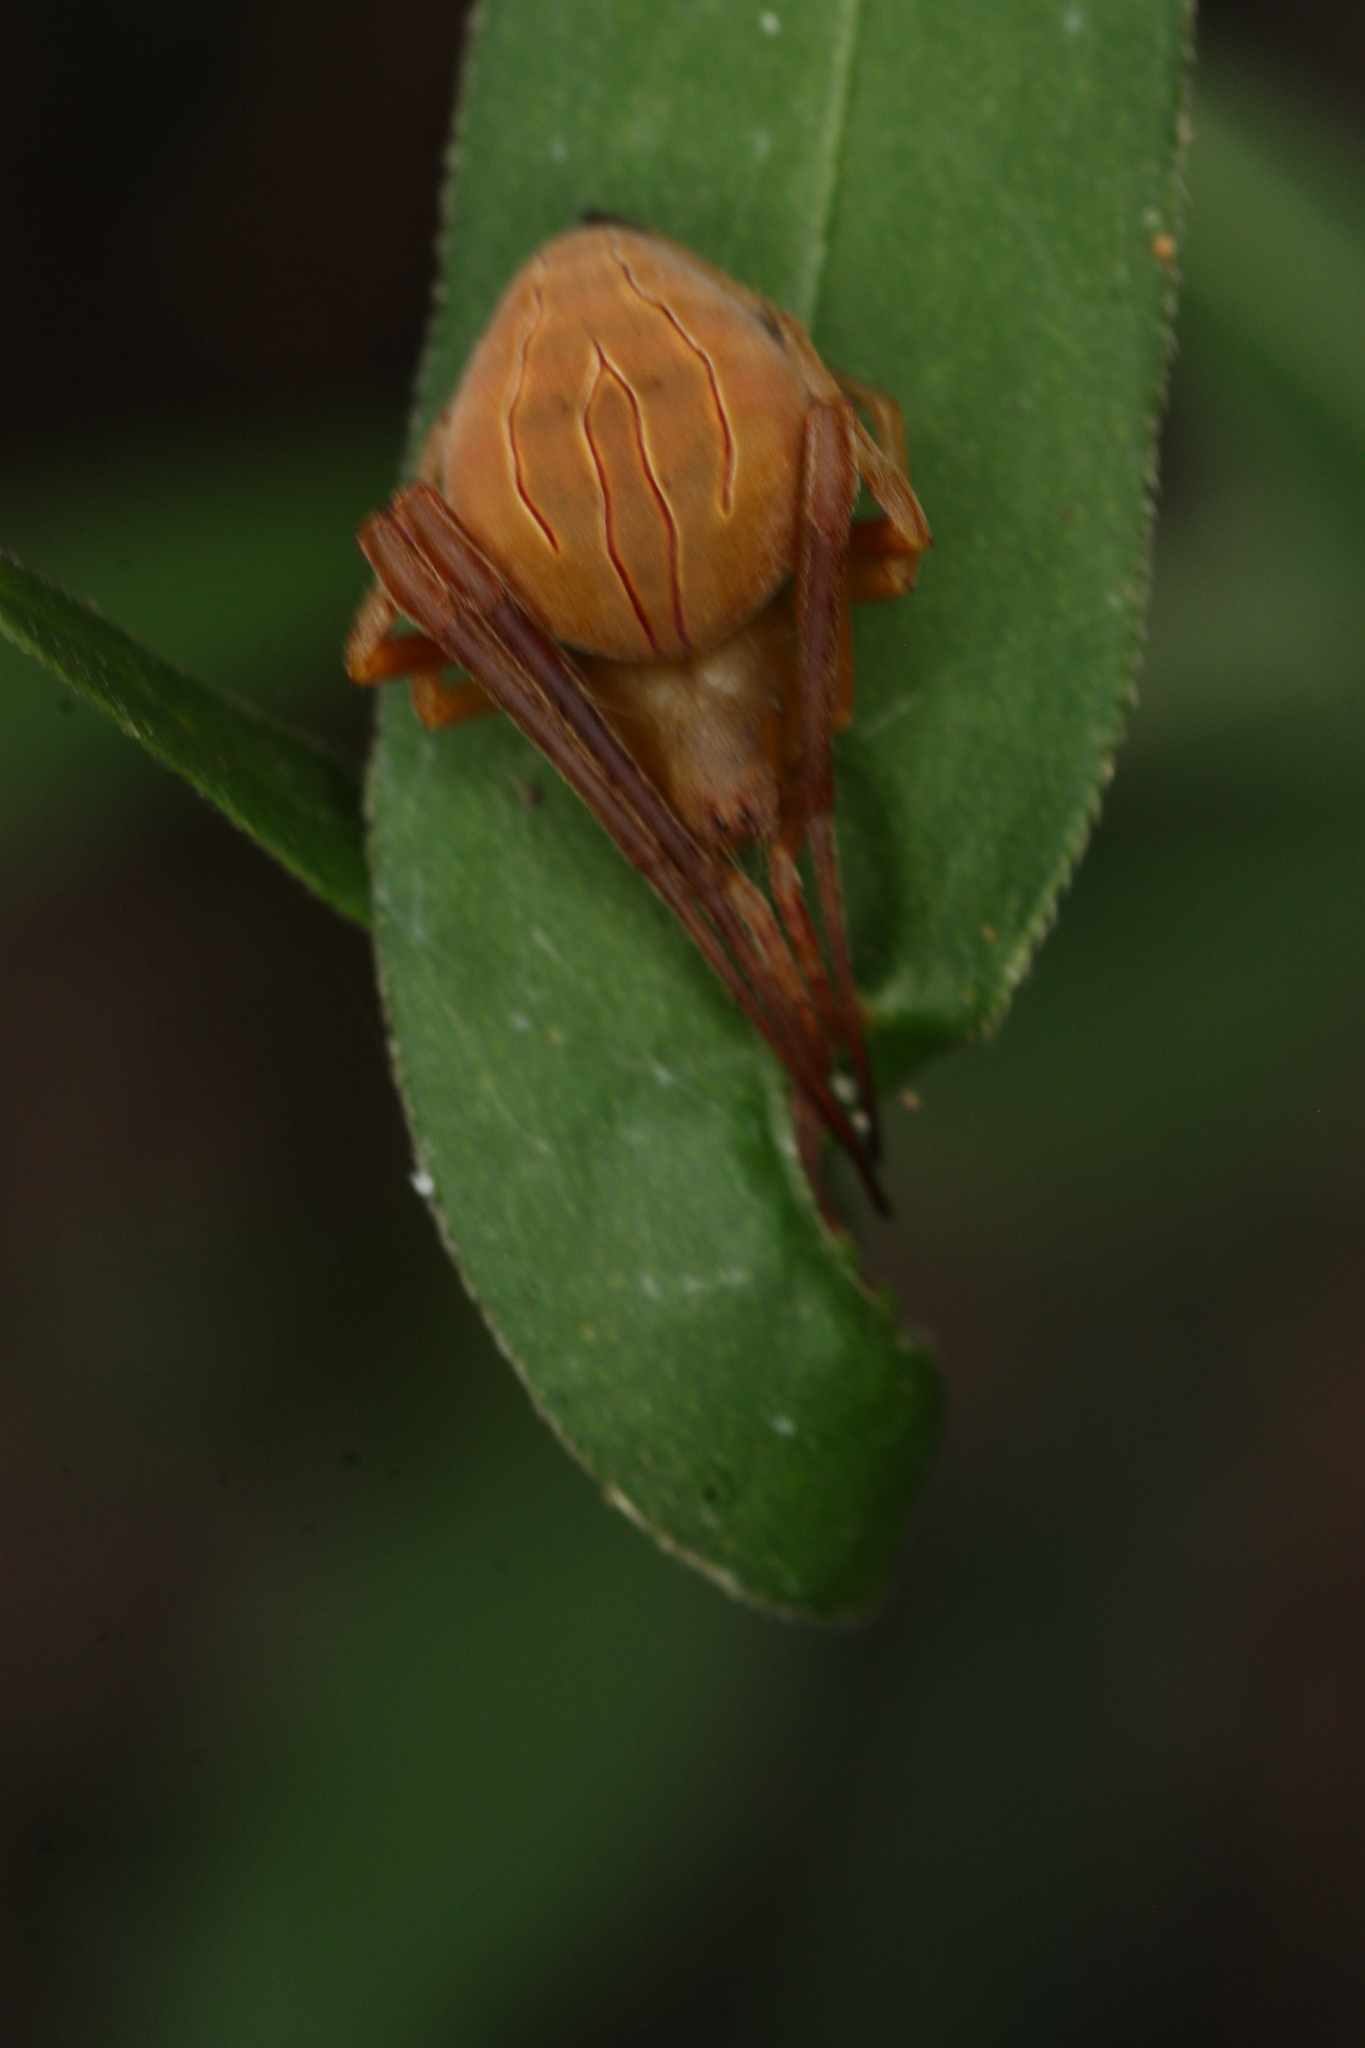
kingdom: Animalia
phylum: Arthropoda
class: Arachnida
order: Araneae
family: Araneidae
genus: Acacesia
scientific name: Acacesia hamata
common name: Orb weavers
